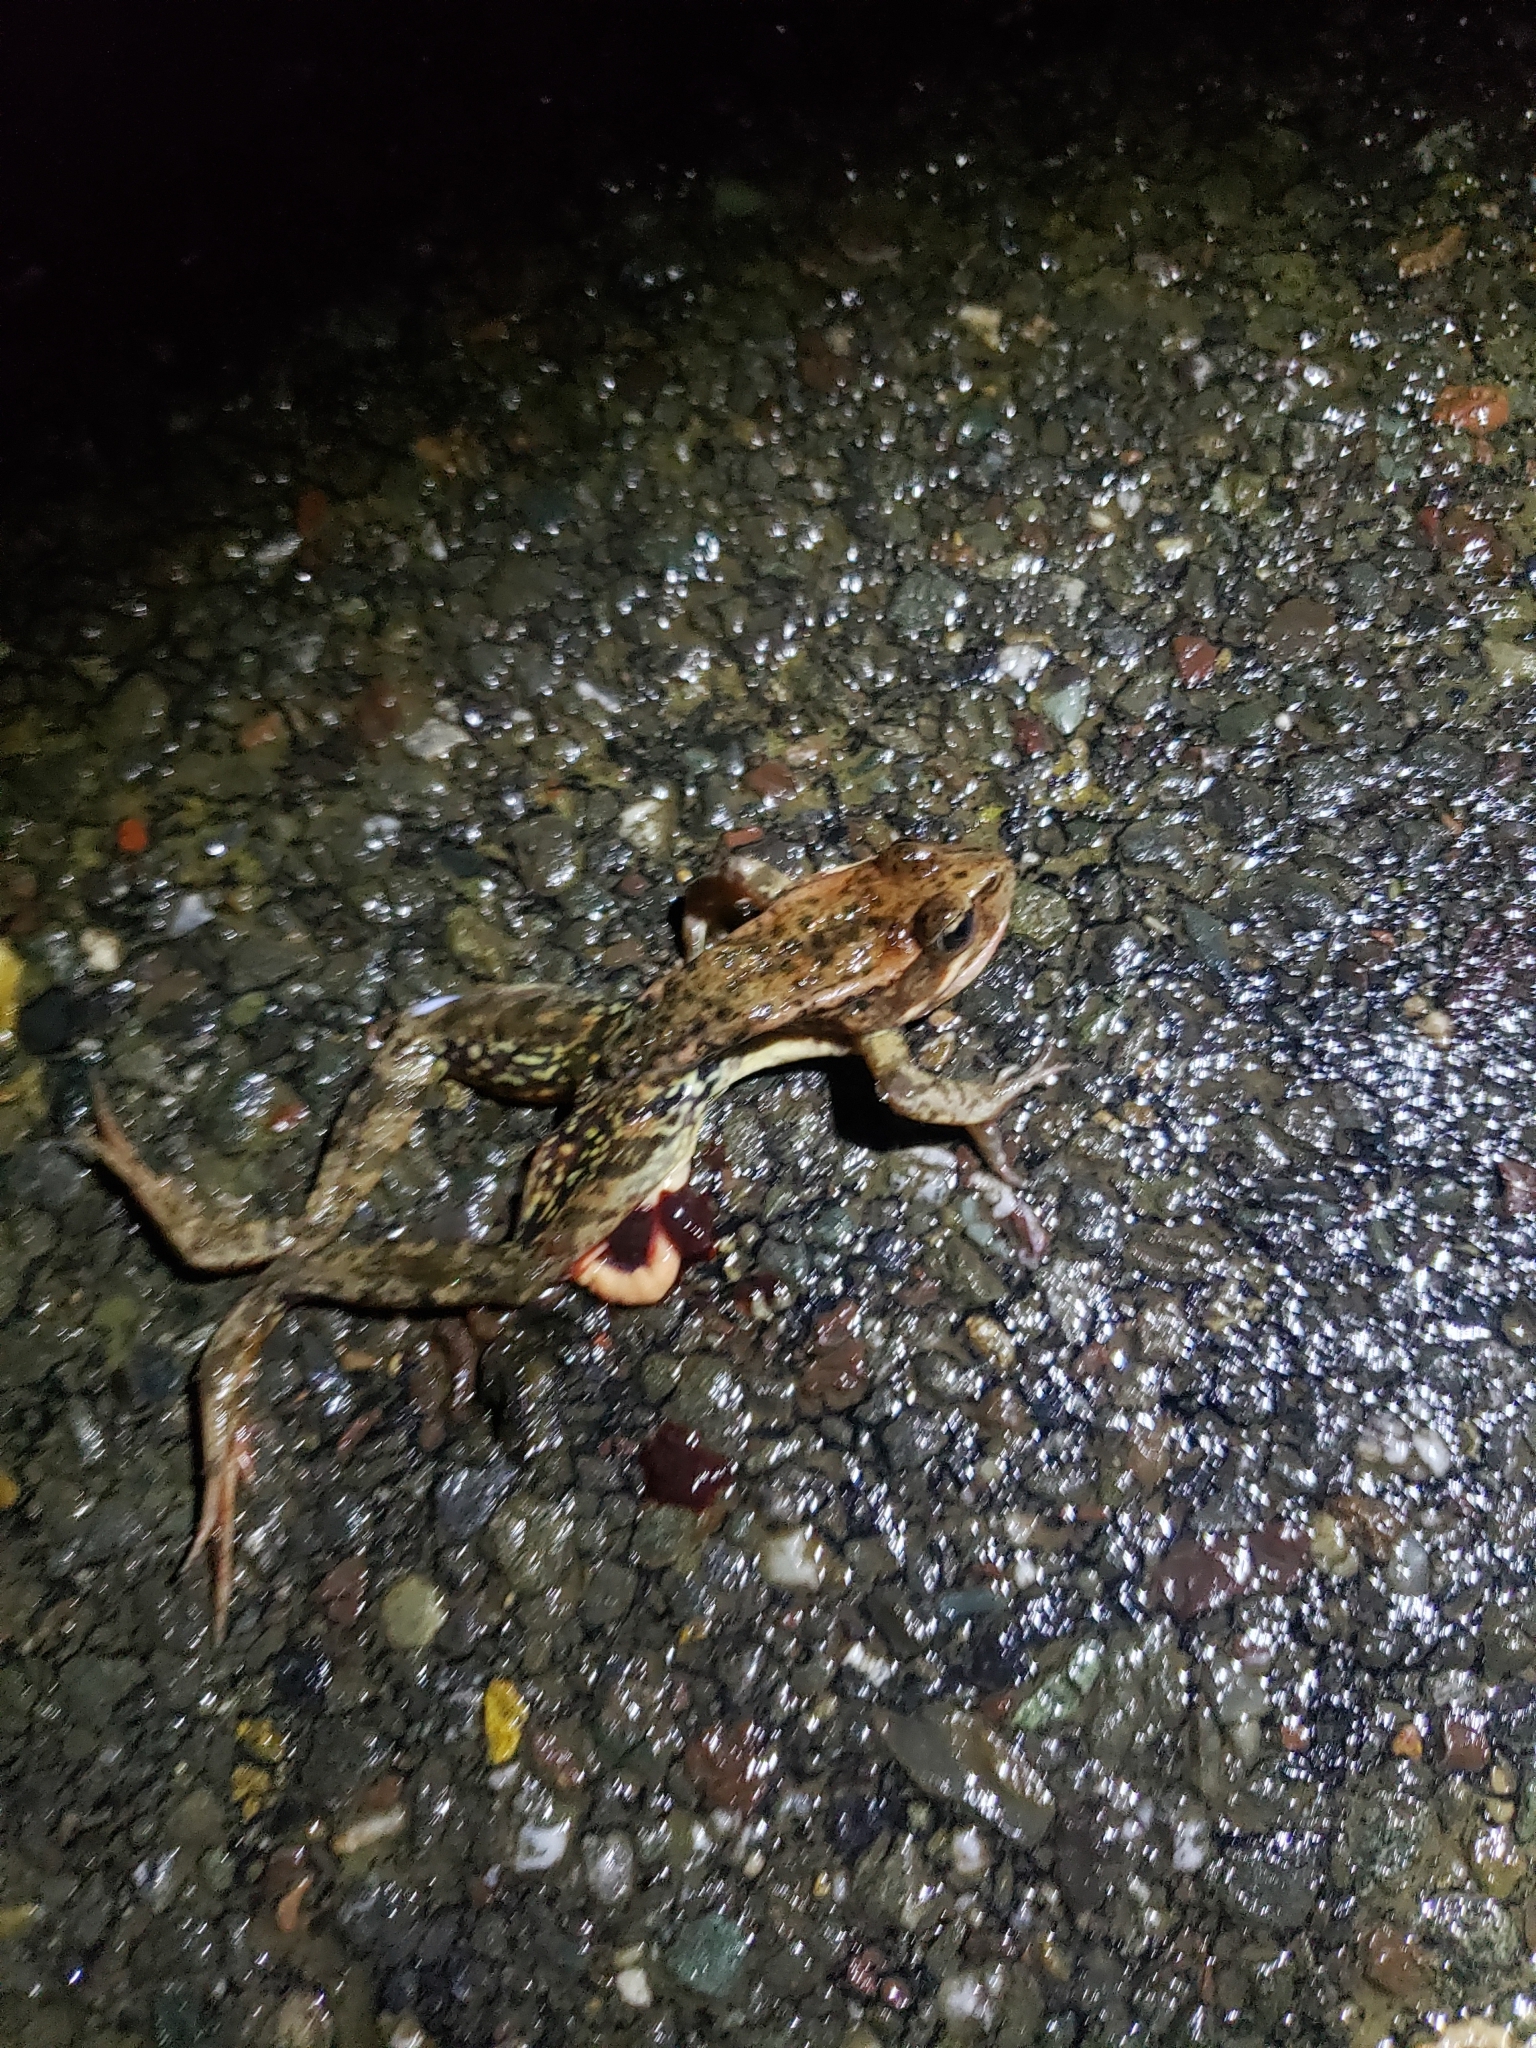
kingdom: Animalia
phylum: Chordata
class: Amphibia
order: Anura
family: Ranidae
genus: Rana
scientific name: Rana draytonii
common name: California red-legged frog
